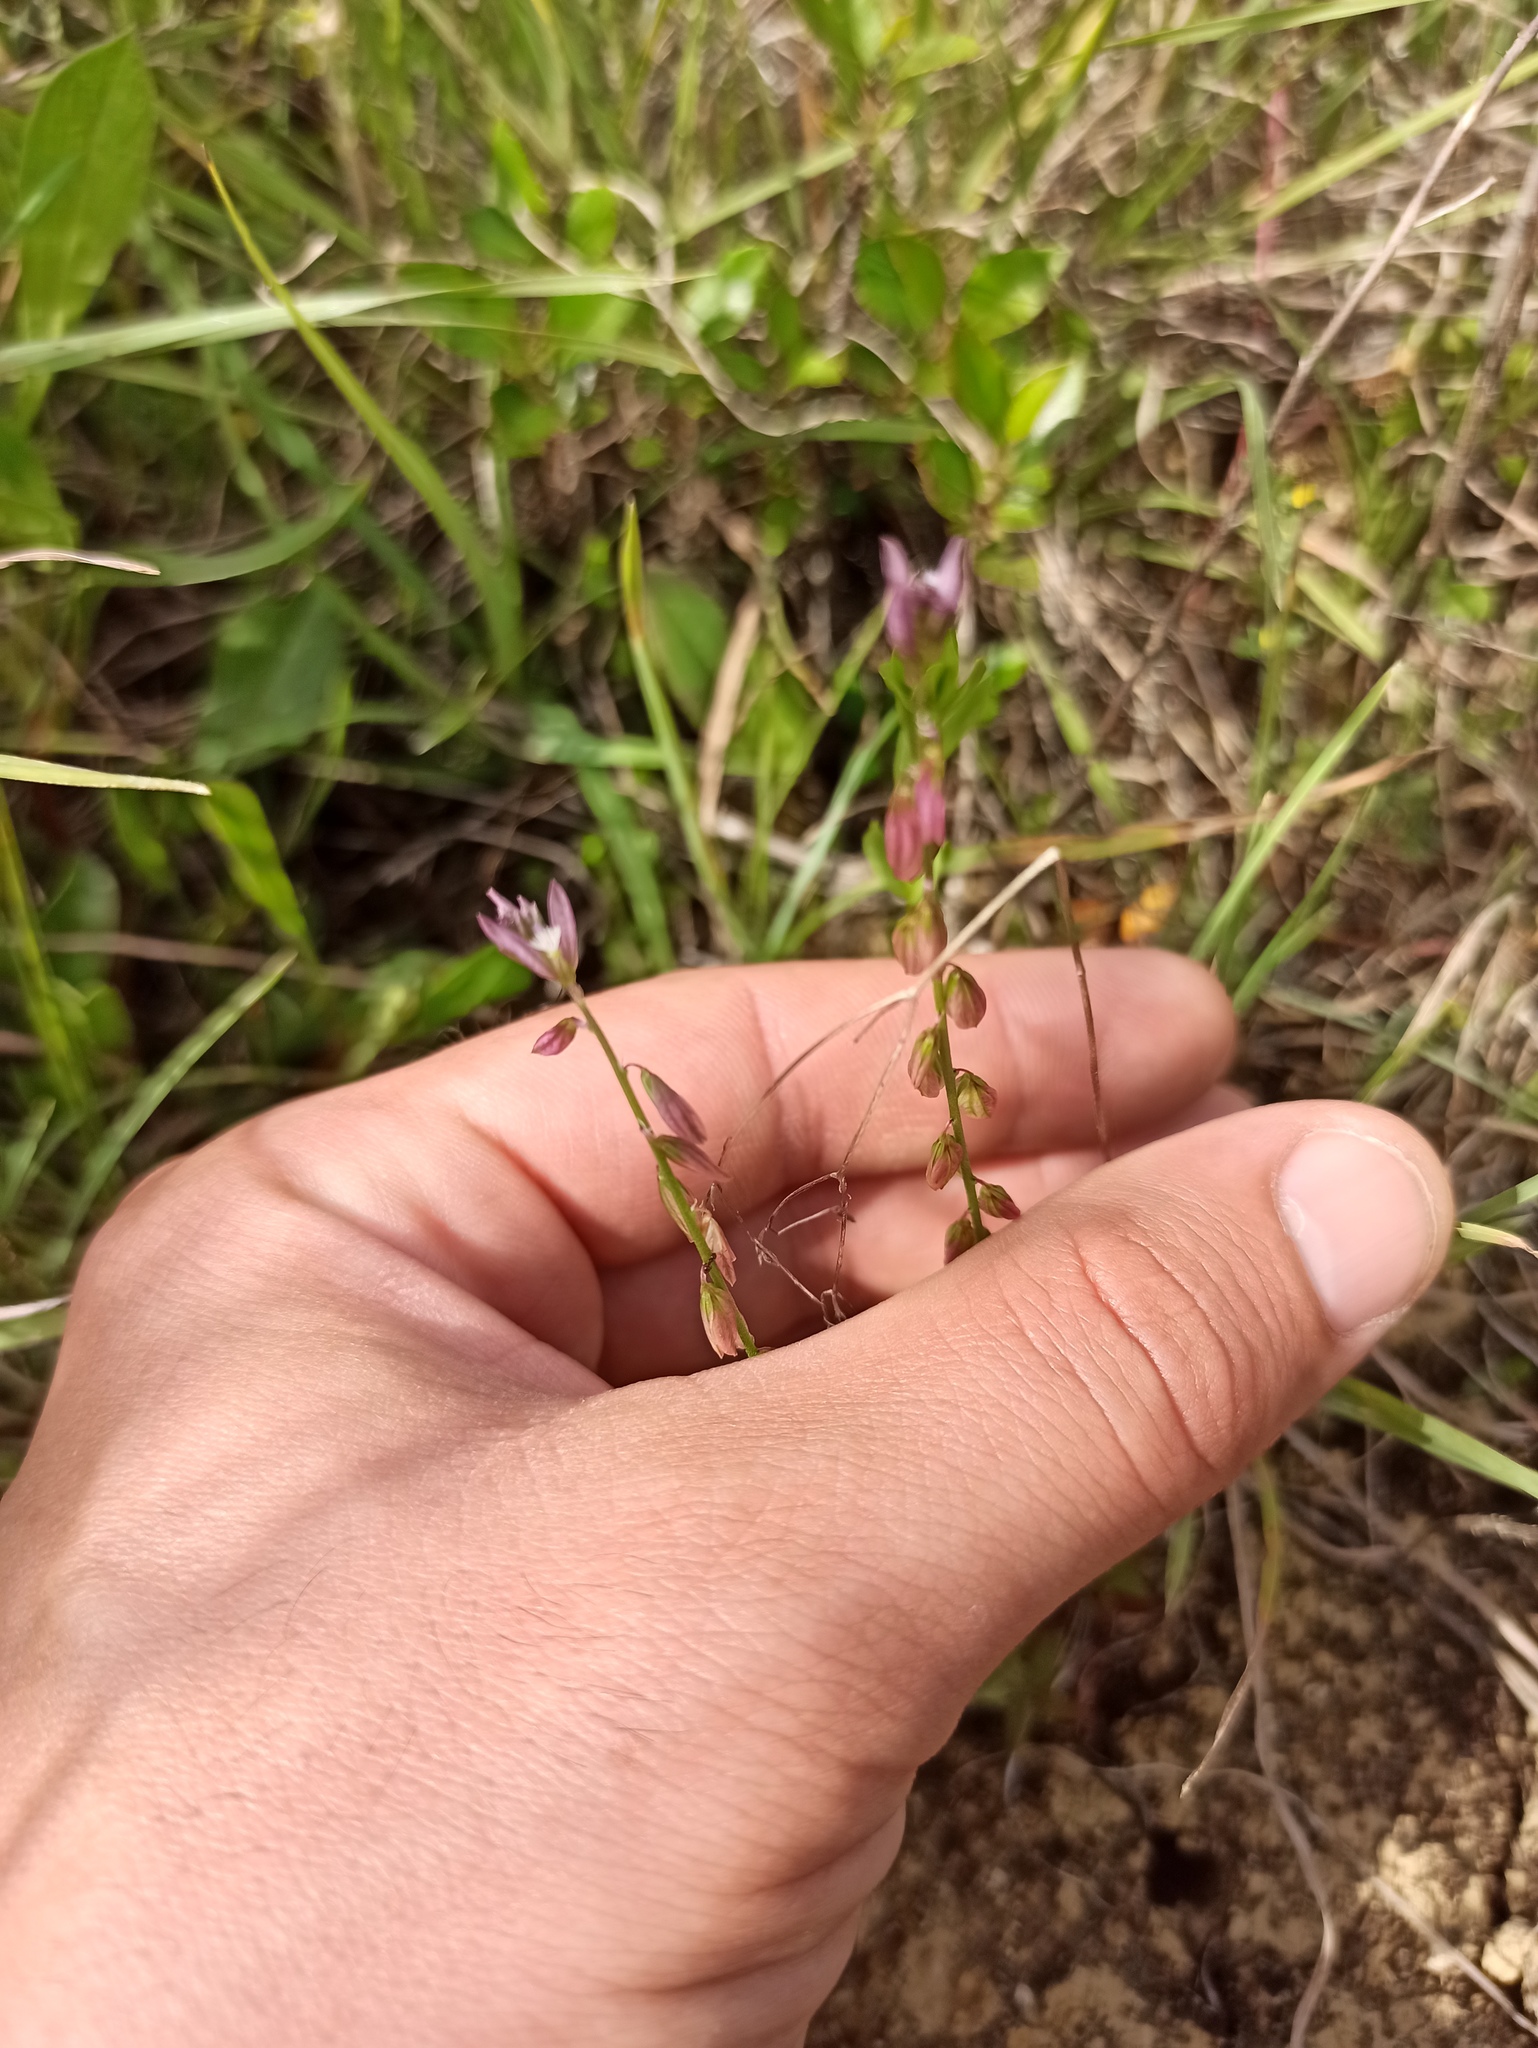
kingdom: Plantae
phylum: Tracheophyta
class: Magnoliopsida
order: Fabales
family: Polygalaceae
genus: Polygala
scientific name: Polygala monspeliaca
